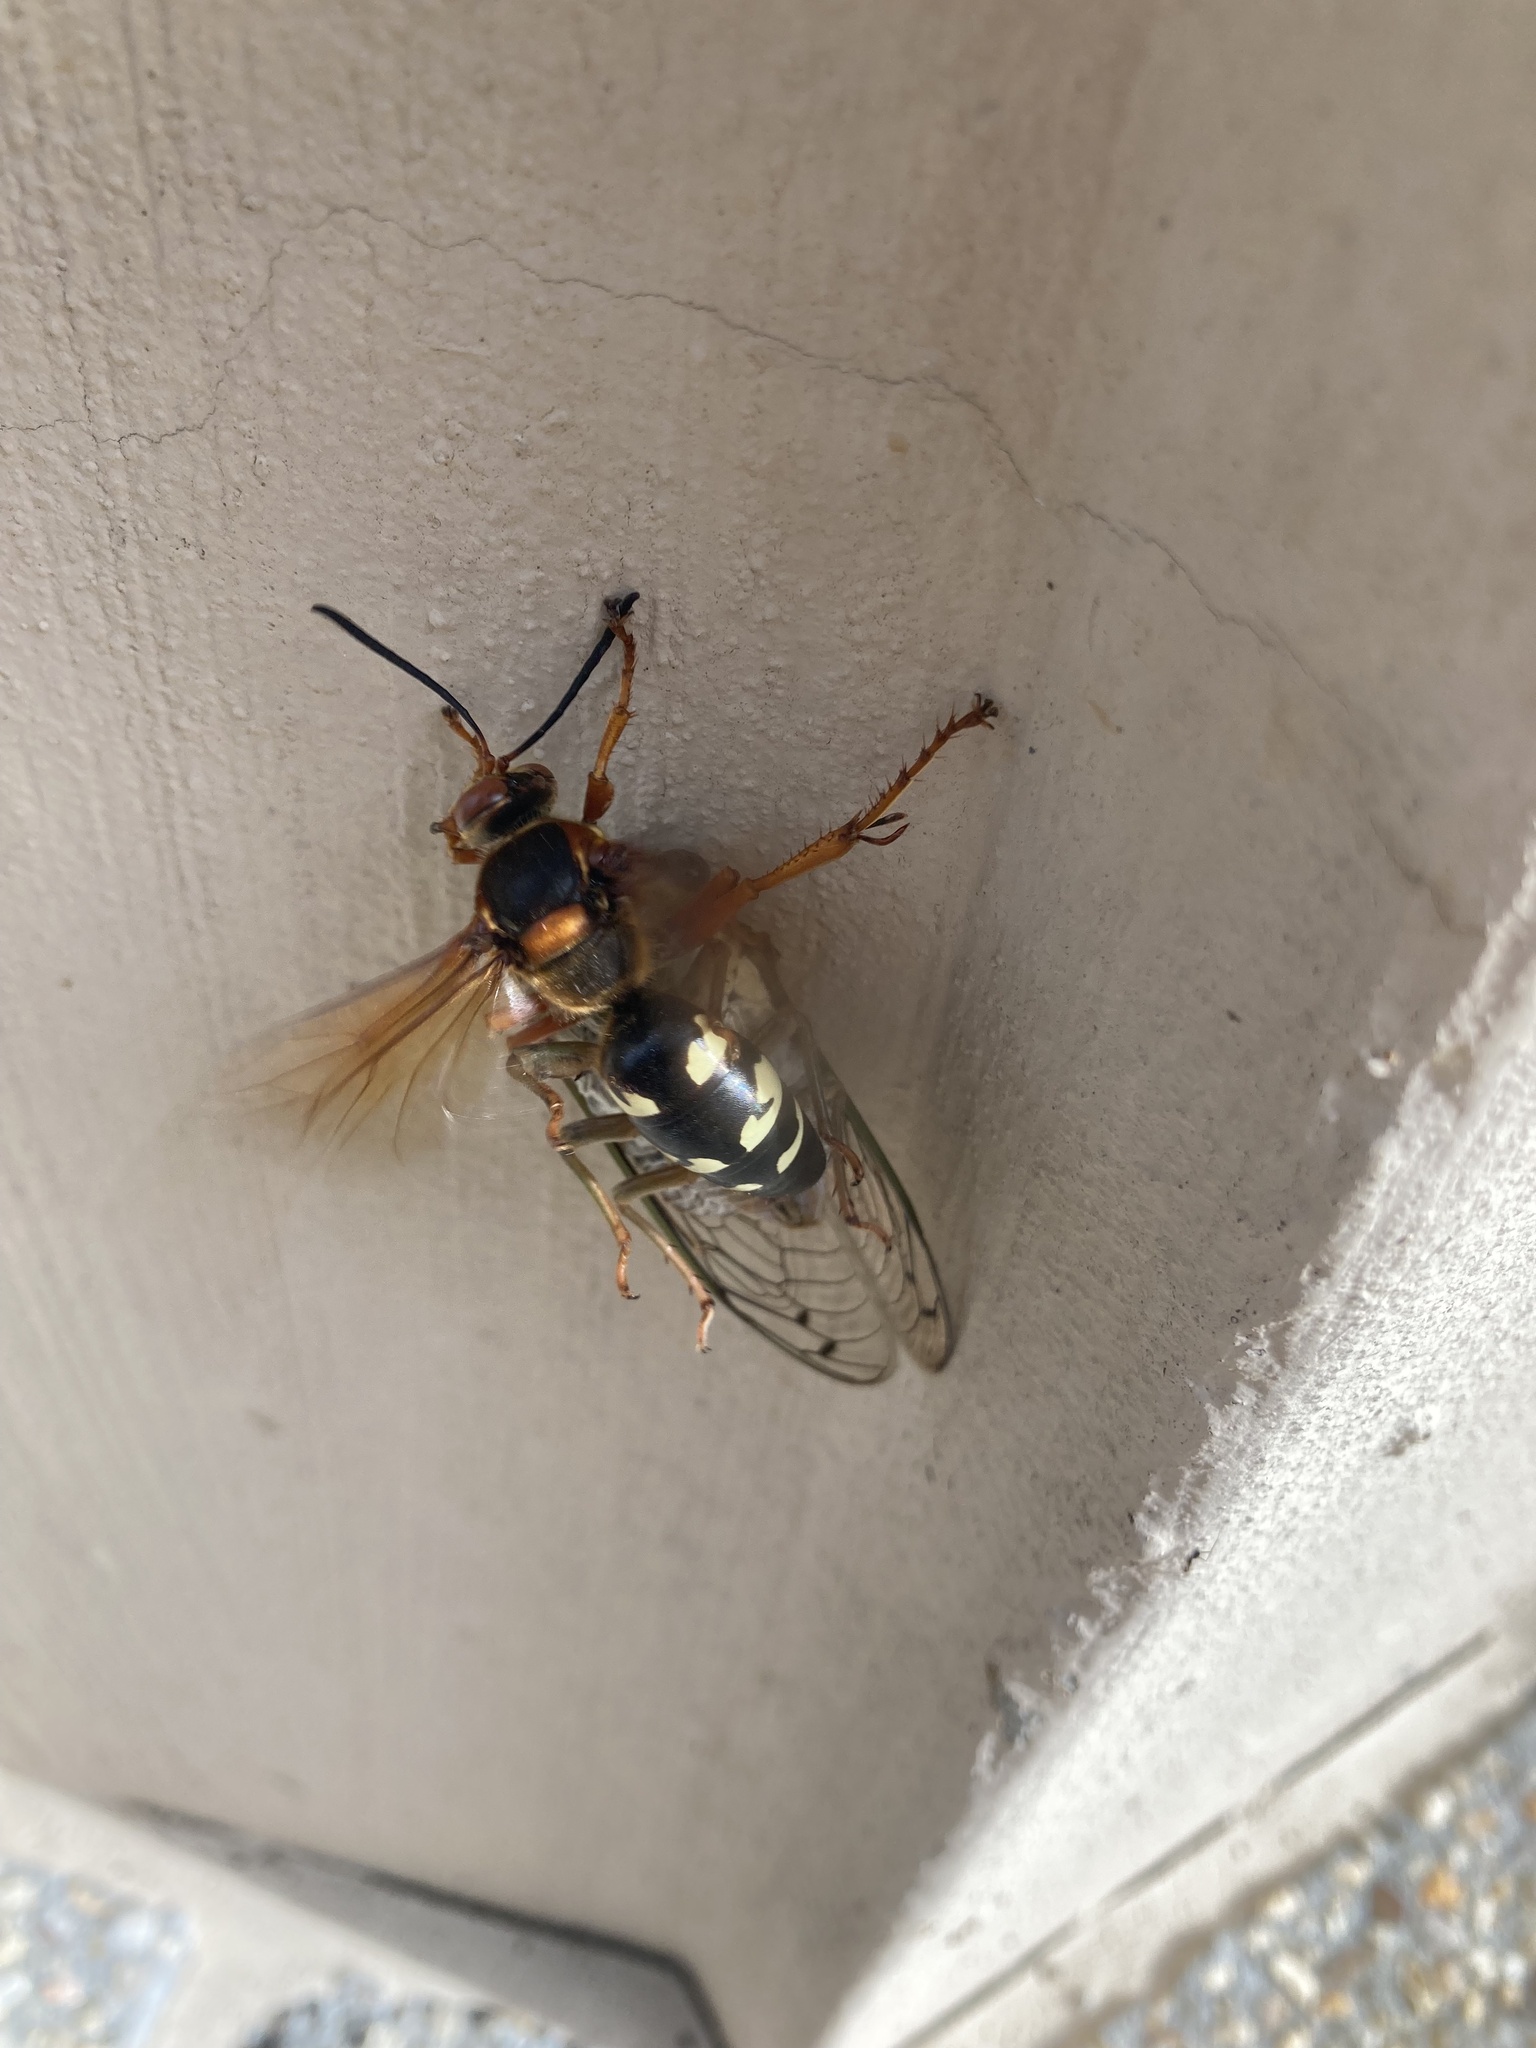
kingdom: Animalia
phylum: Arthropoda
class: Insecta
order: Hymenoptera
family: Crabronidae
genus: Sphecius
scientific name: Sphecius speciosus
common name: Cicada killer
